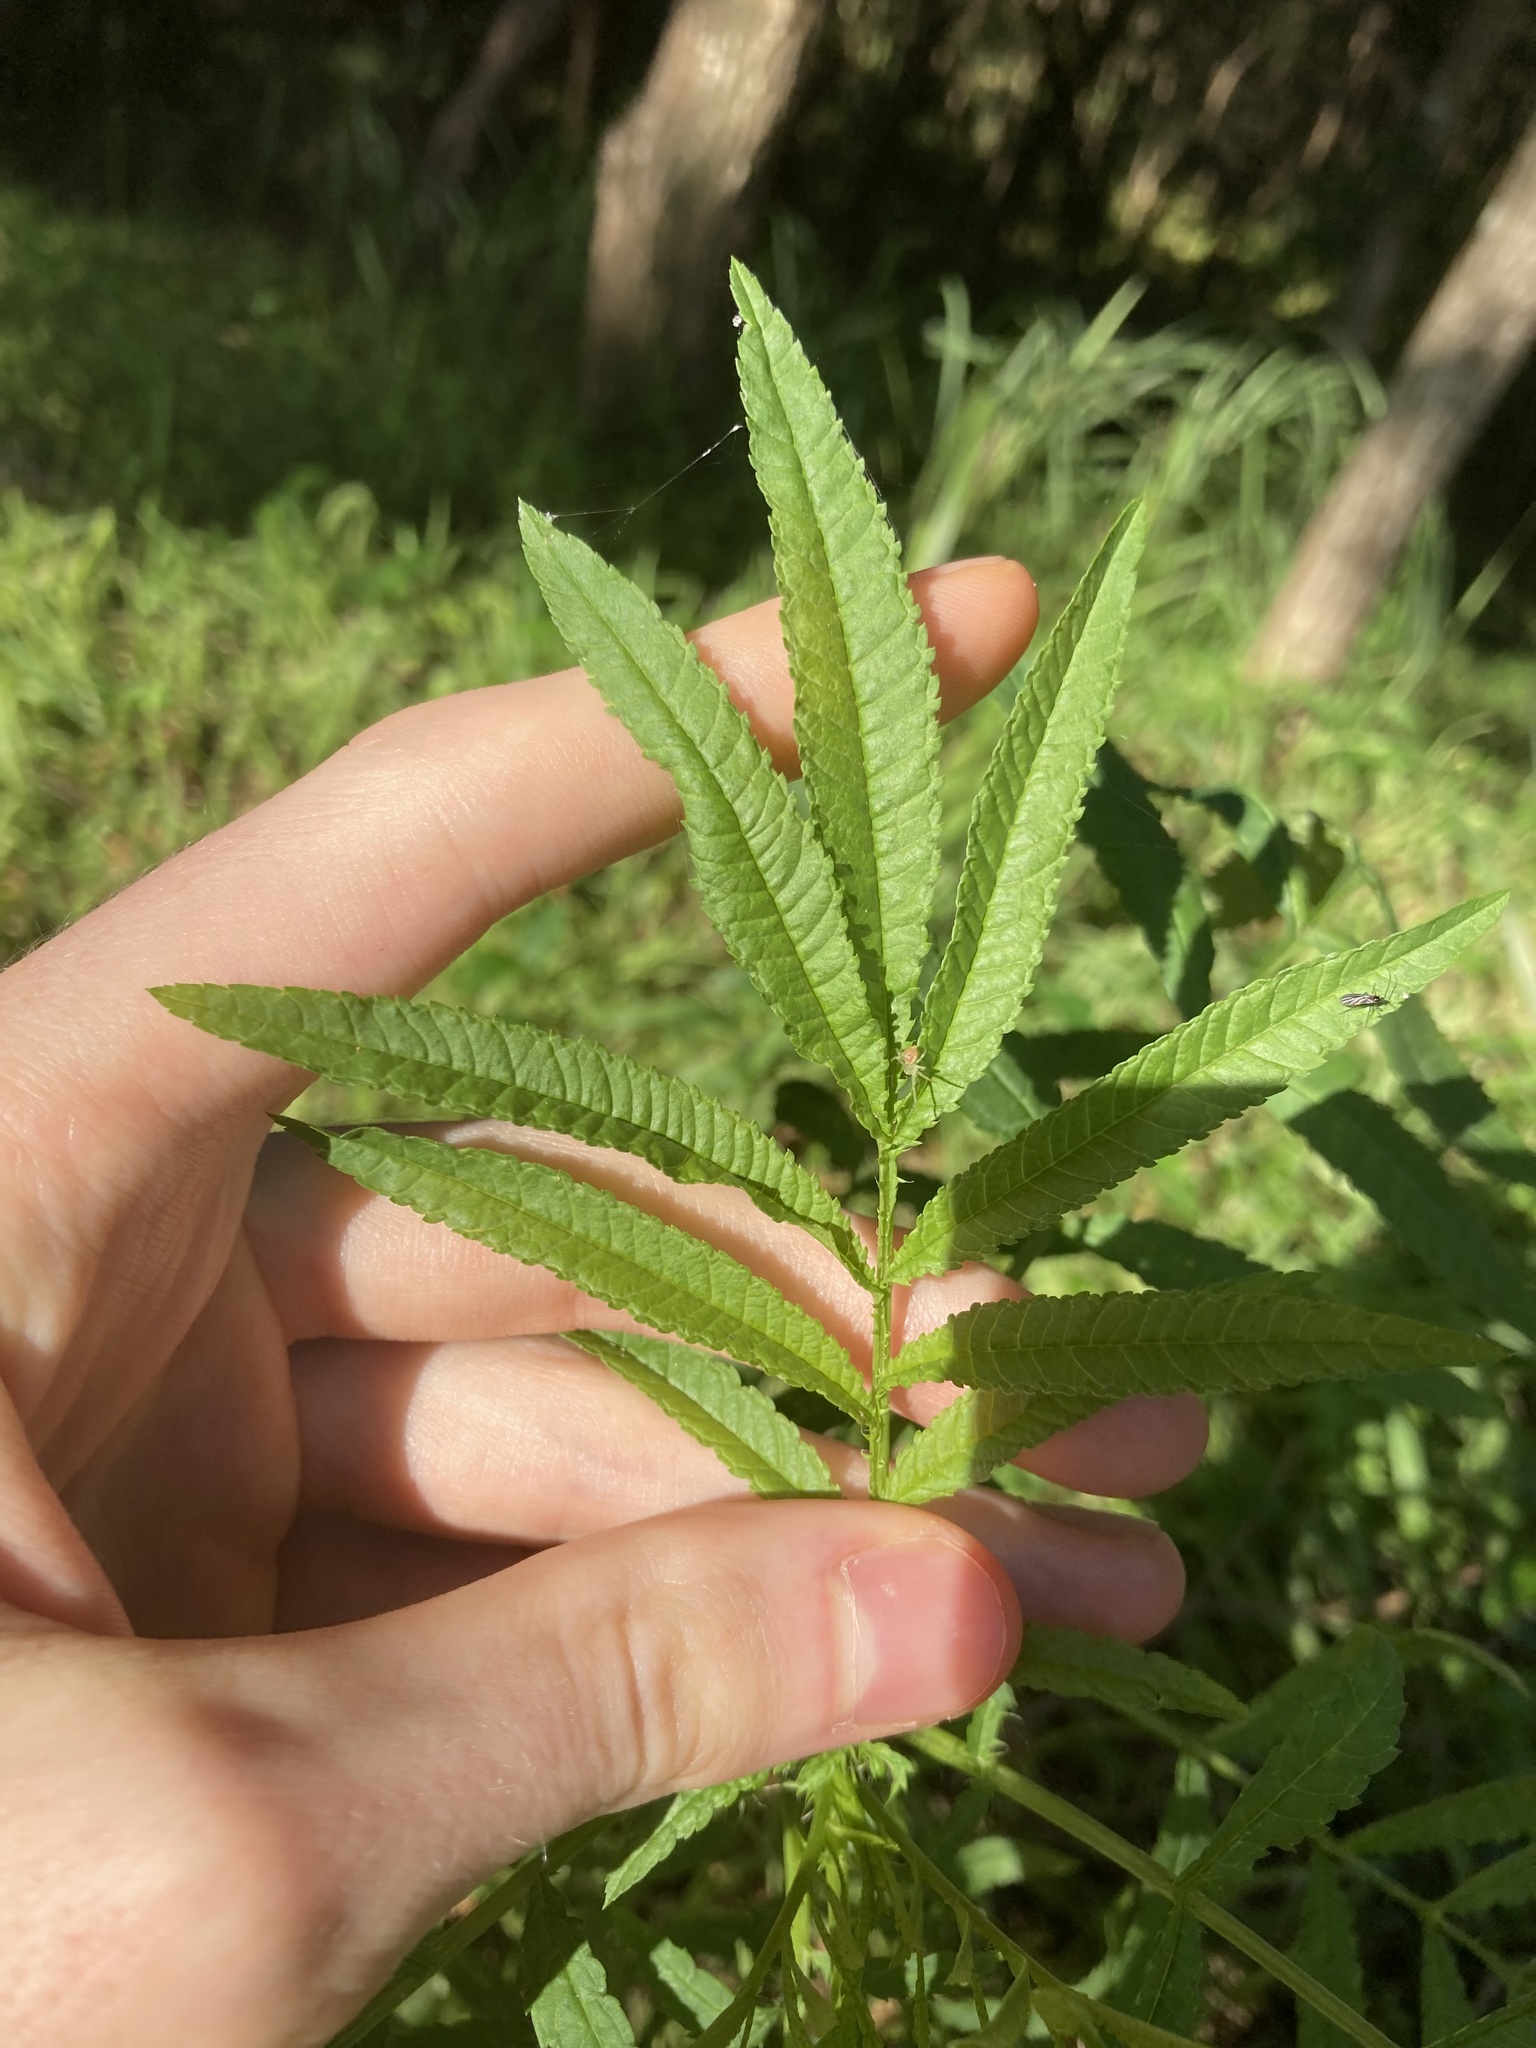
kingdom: Plantae
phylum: Tracheophyta
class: Magnoliopsida
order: Asterales
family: Asteraceae
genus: Tagetes
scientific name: Tagetes minuta
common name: Muster john henry
